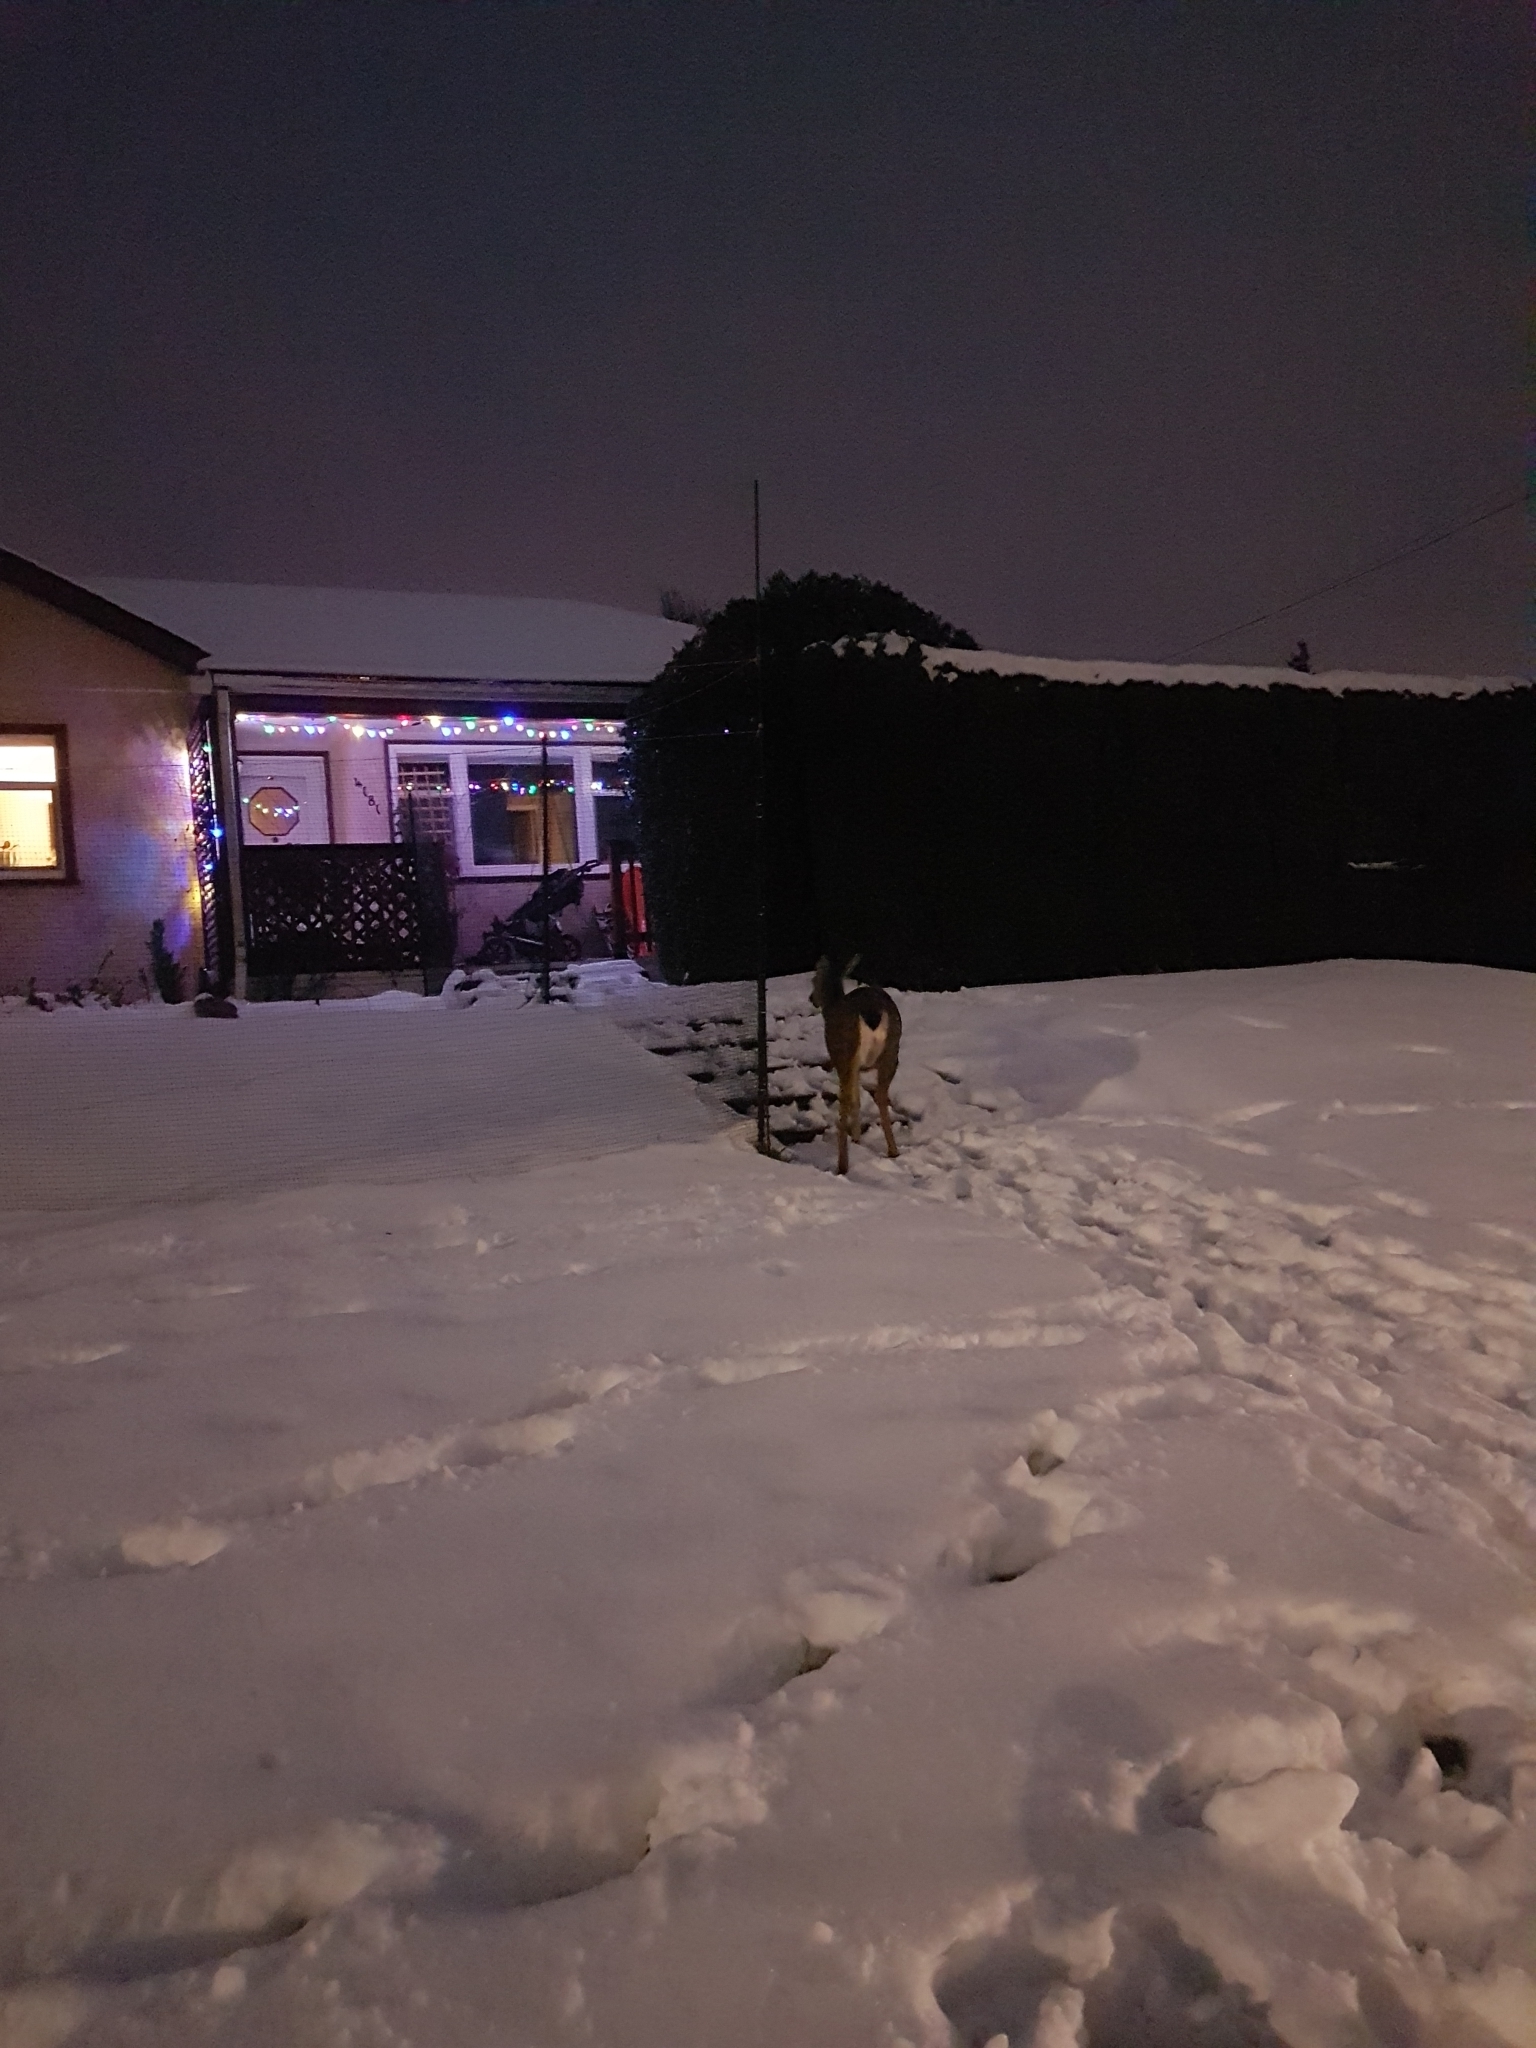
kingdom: Animalia
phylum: Chordata
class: Mammalia
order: Artiodactyla
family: Cervidae
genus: Odocoileus
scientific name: Odocoileus hemionus
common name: Mule deer
